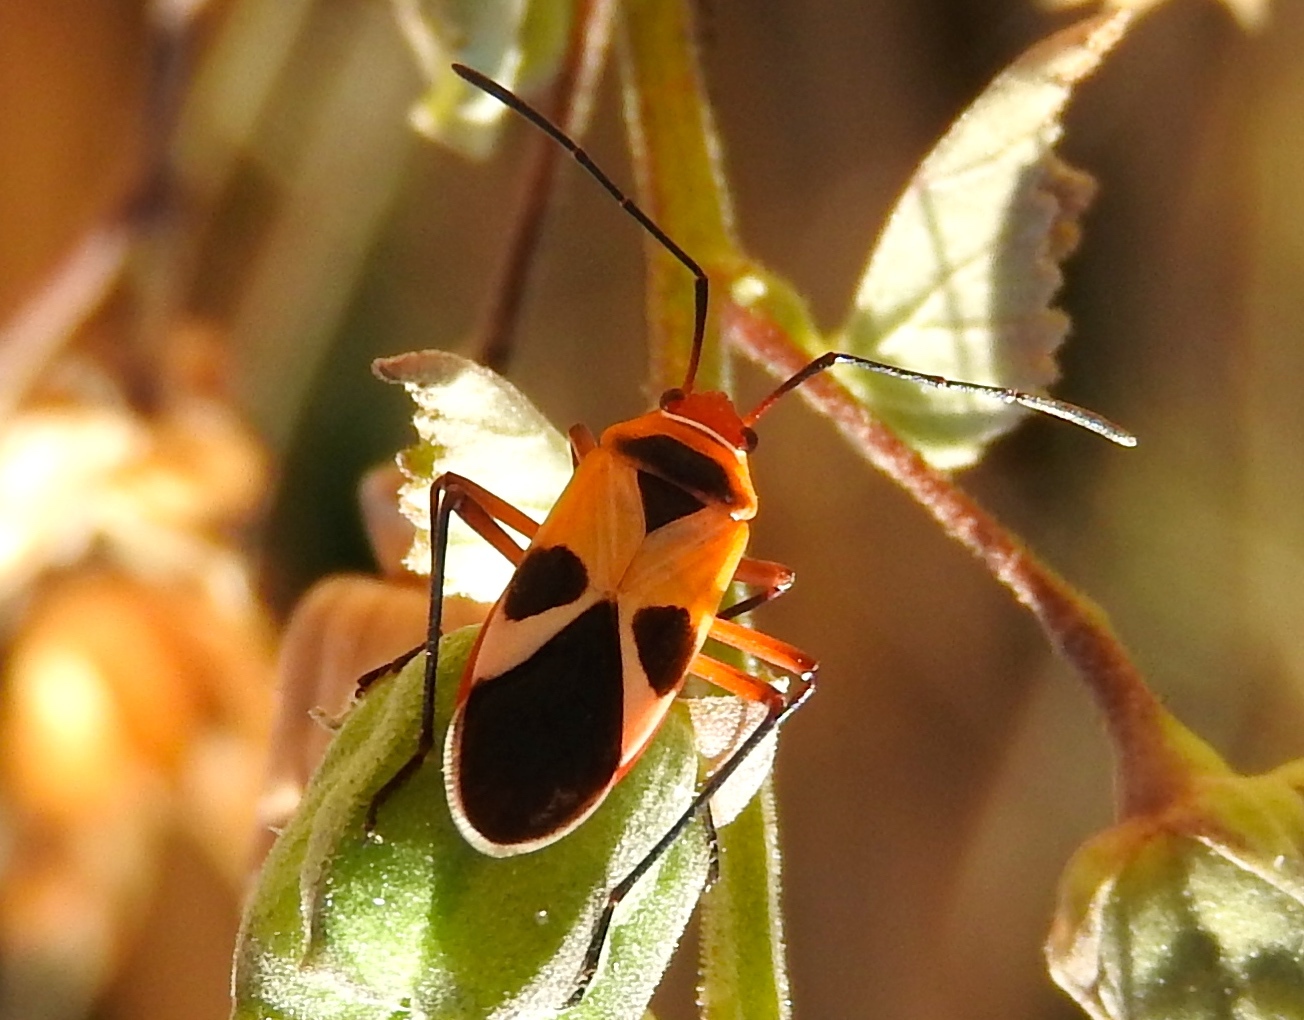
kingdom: Animalia
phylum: Arthropoda
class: Insecta
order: Hemiptera
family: Pyrrhocoridae
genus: Dysdercus
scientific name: Dysdercus mimus
